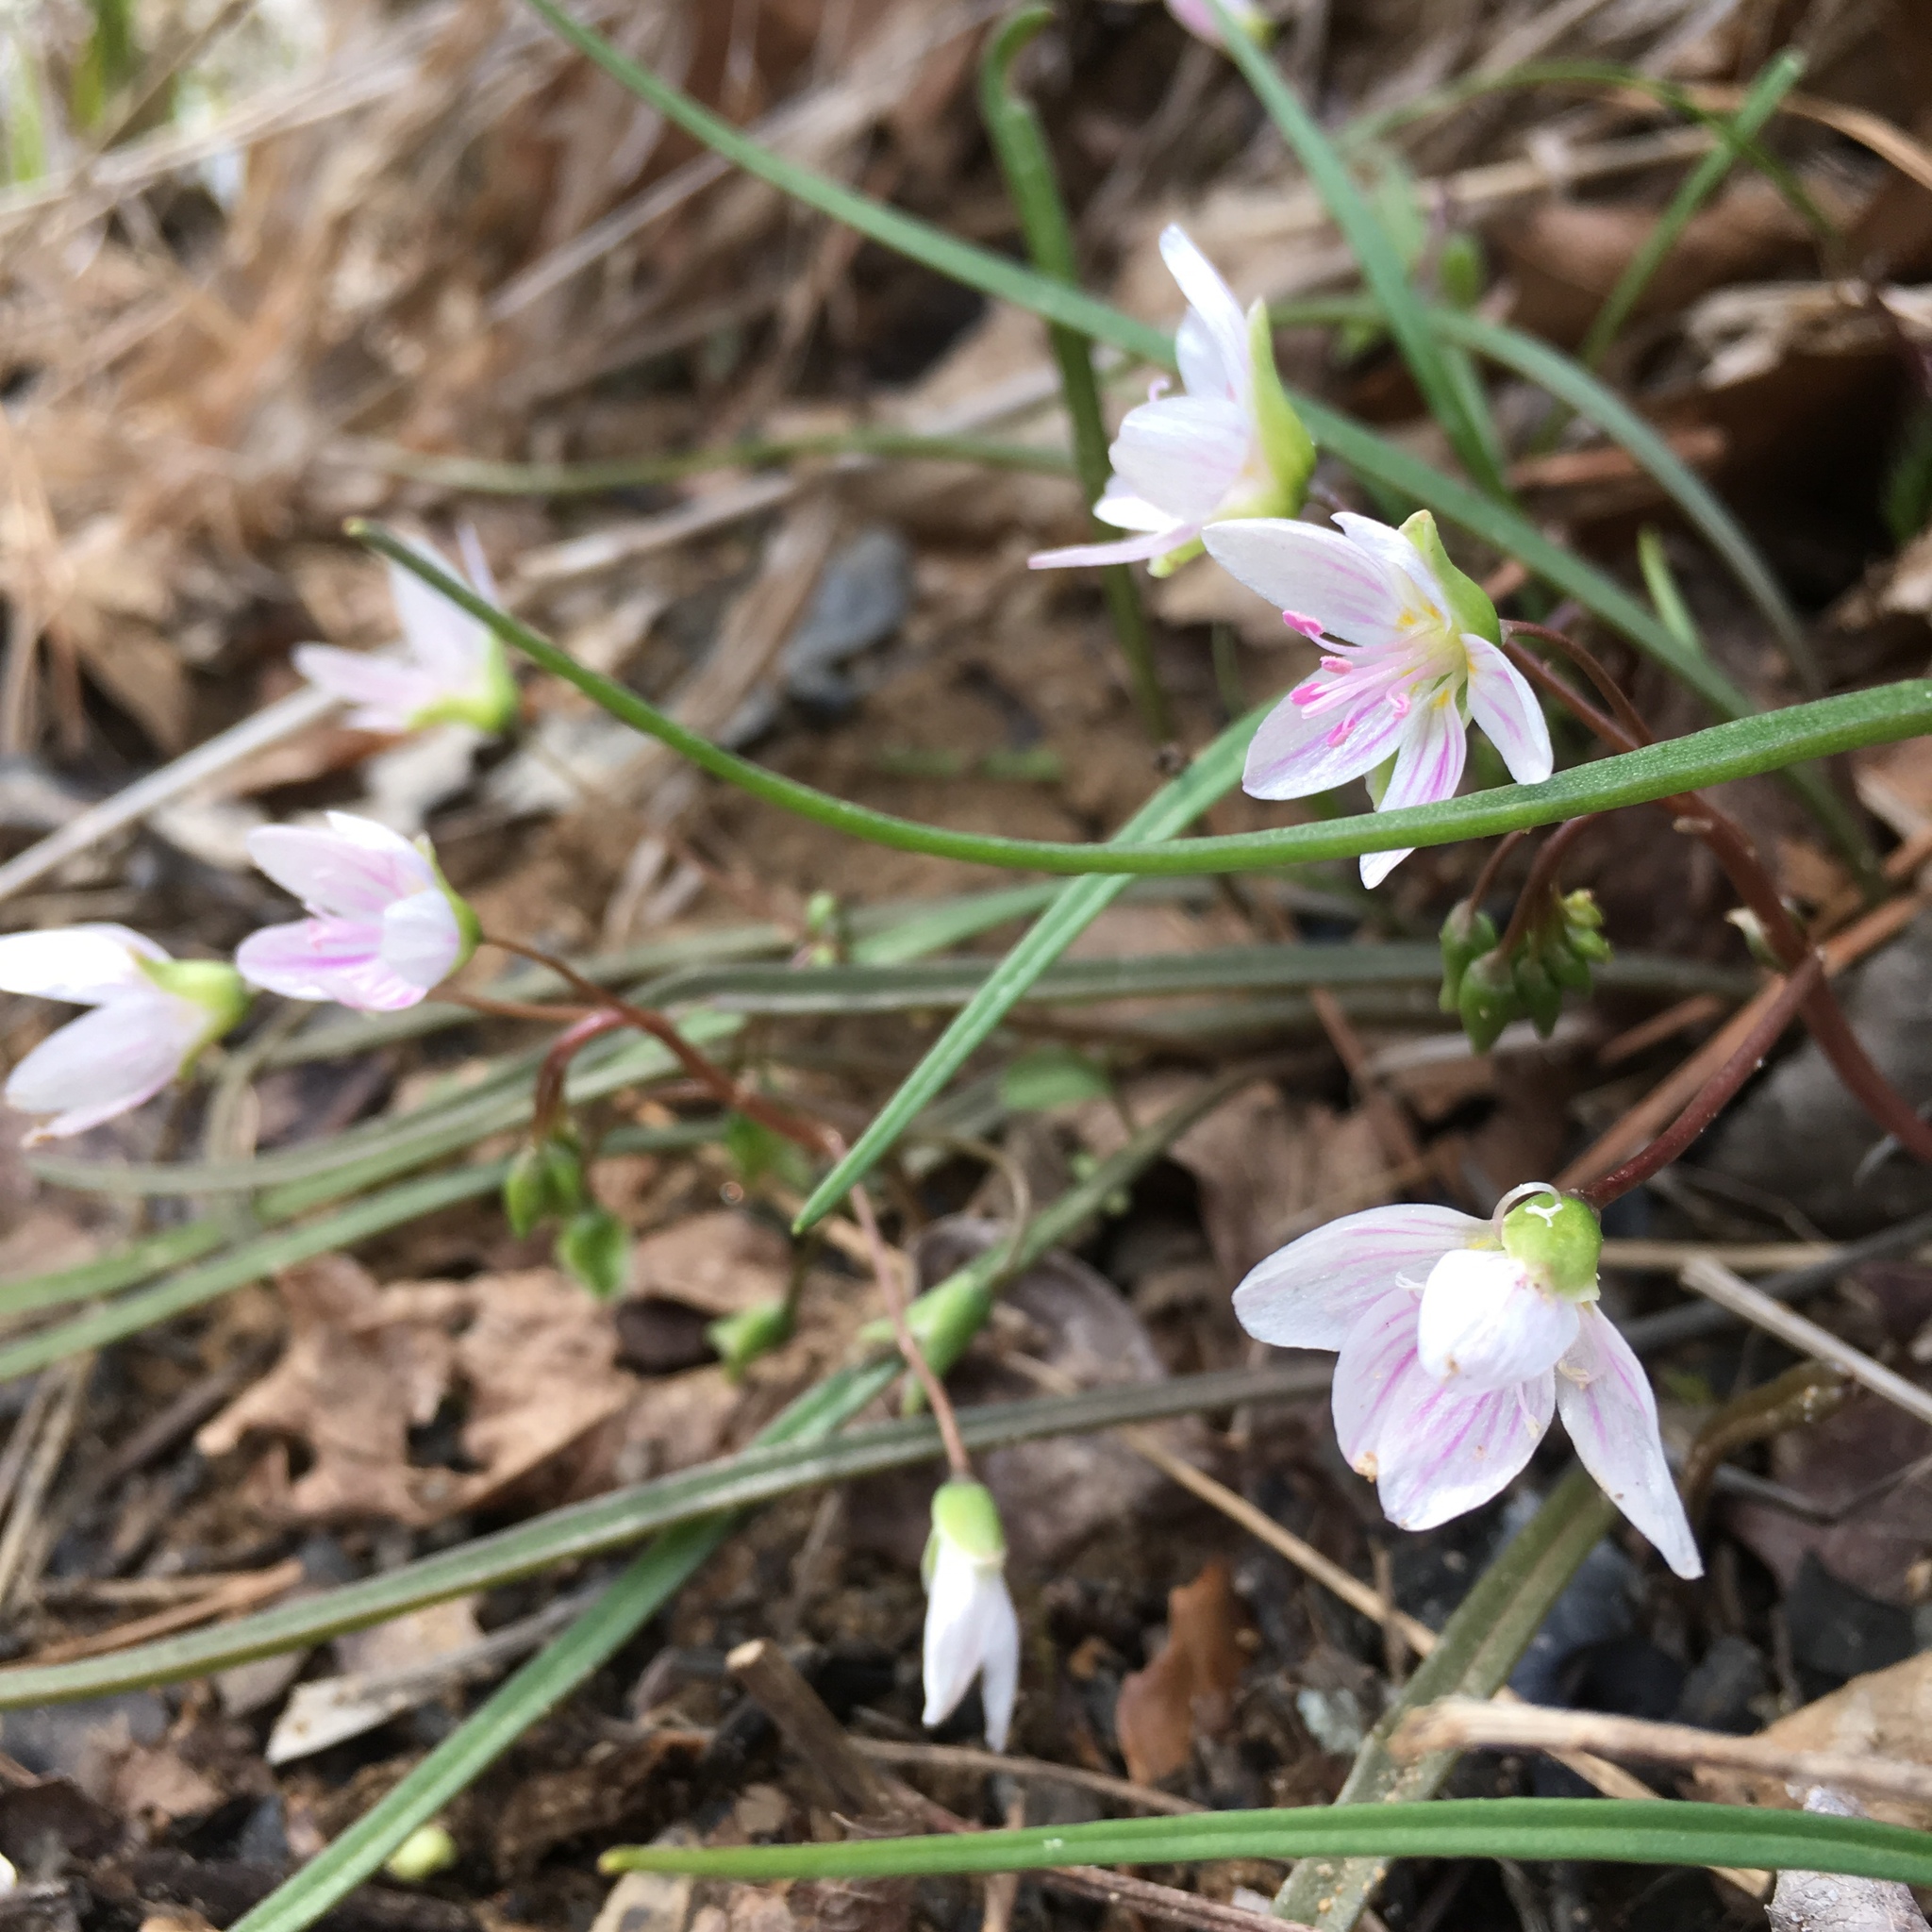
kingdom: Plantae
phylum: Tracheophyta
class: Magnoliopsida
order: Caryophyllales
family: Montiaceae
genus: Claytonia
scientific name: Claytonia virginica
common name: Virginia springbeauty
